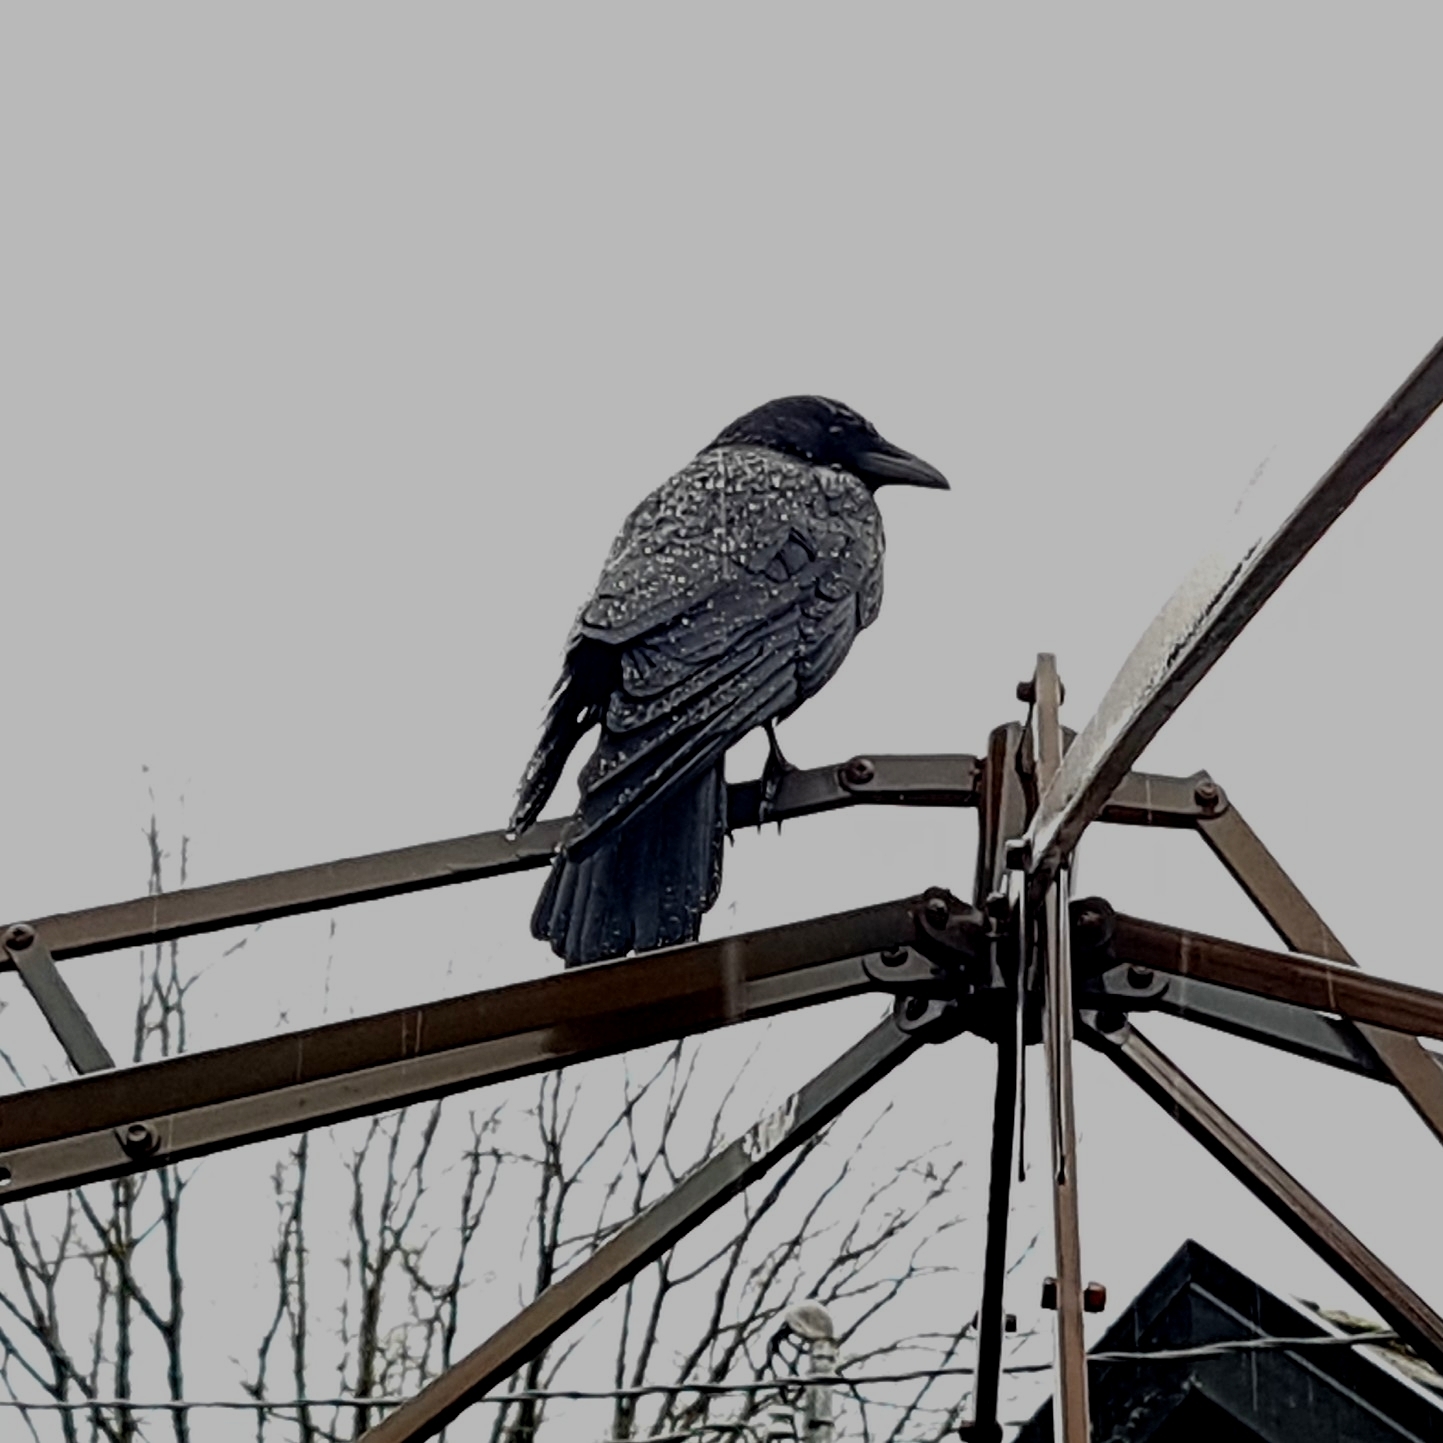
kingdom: Animalia
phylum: Chordata
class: Aves
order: Passeriformes
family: Corvidae
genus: Corvus
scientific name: Corvus brachyrhynchos
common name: American crow
